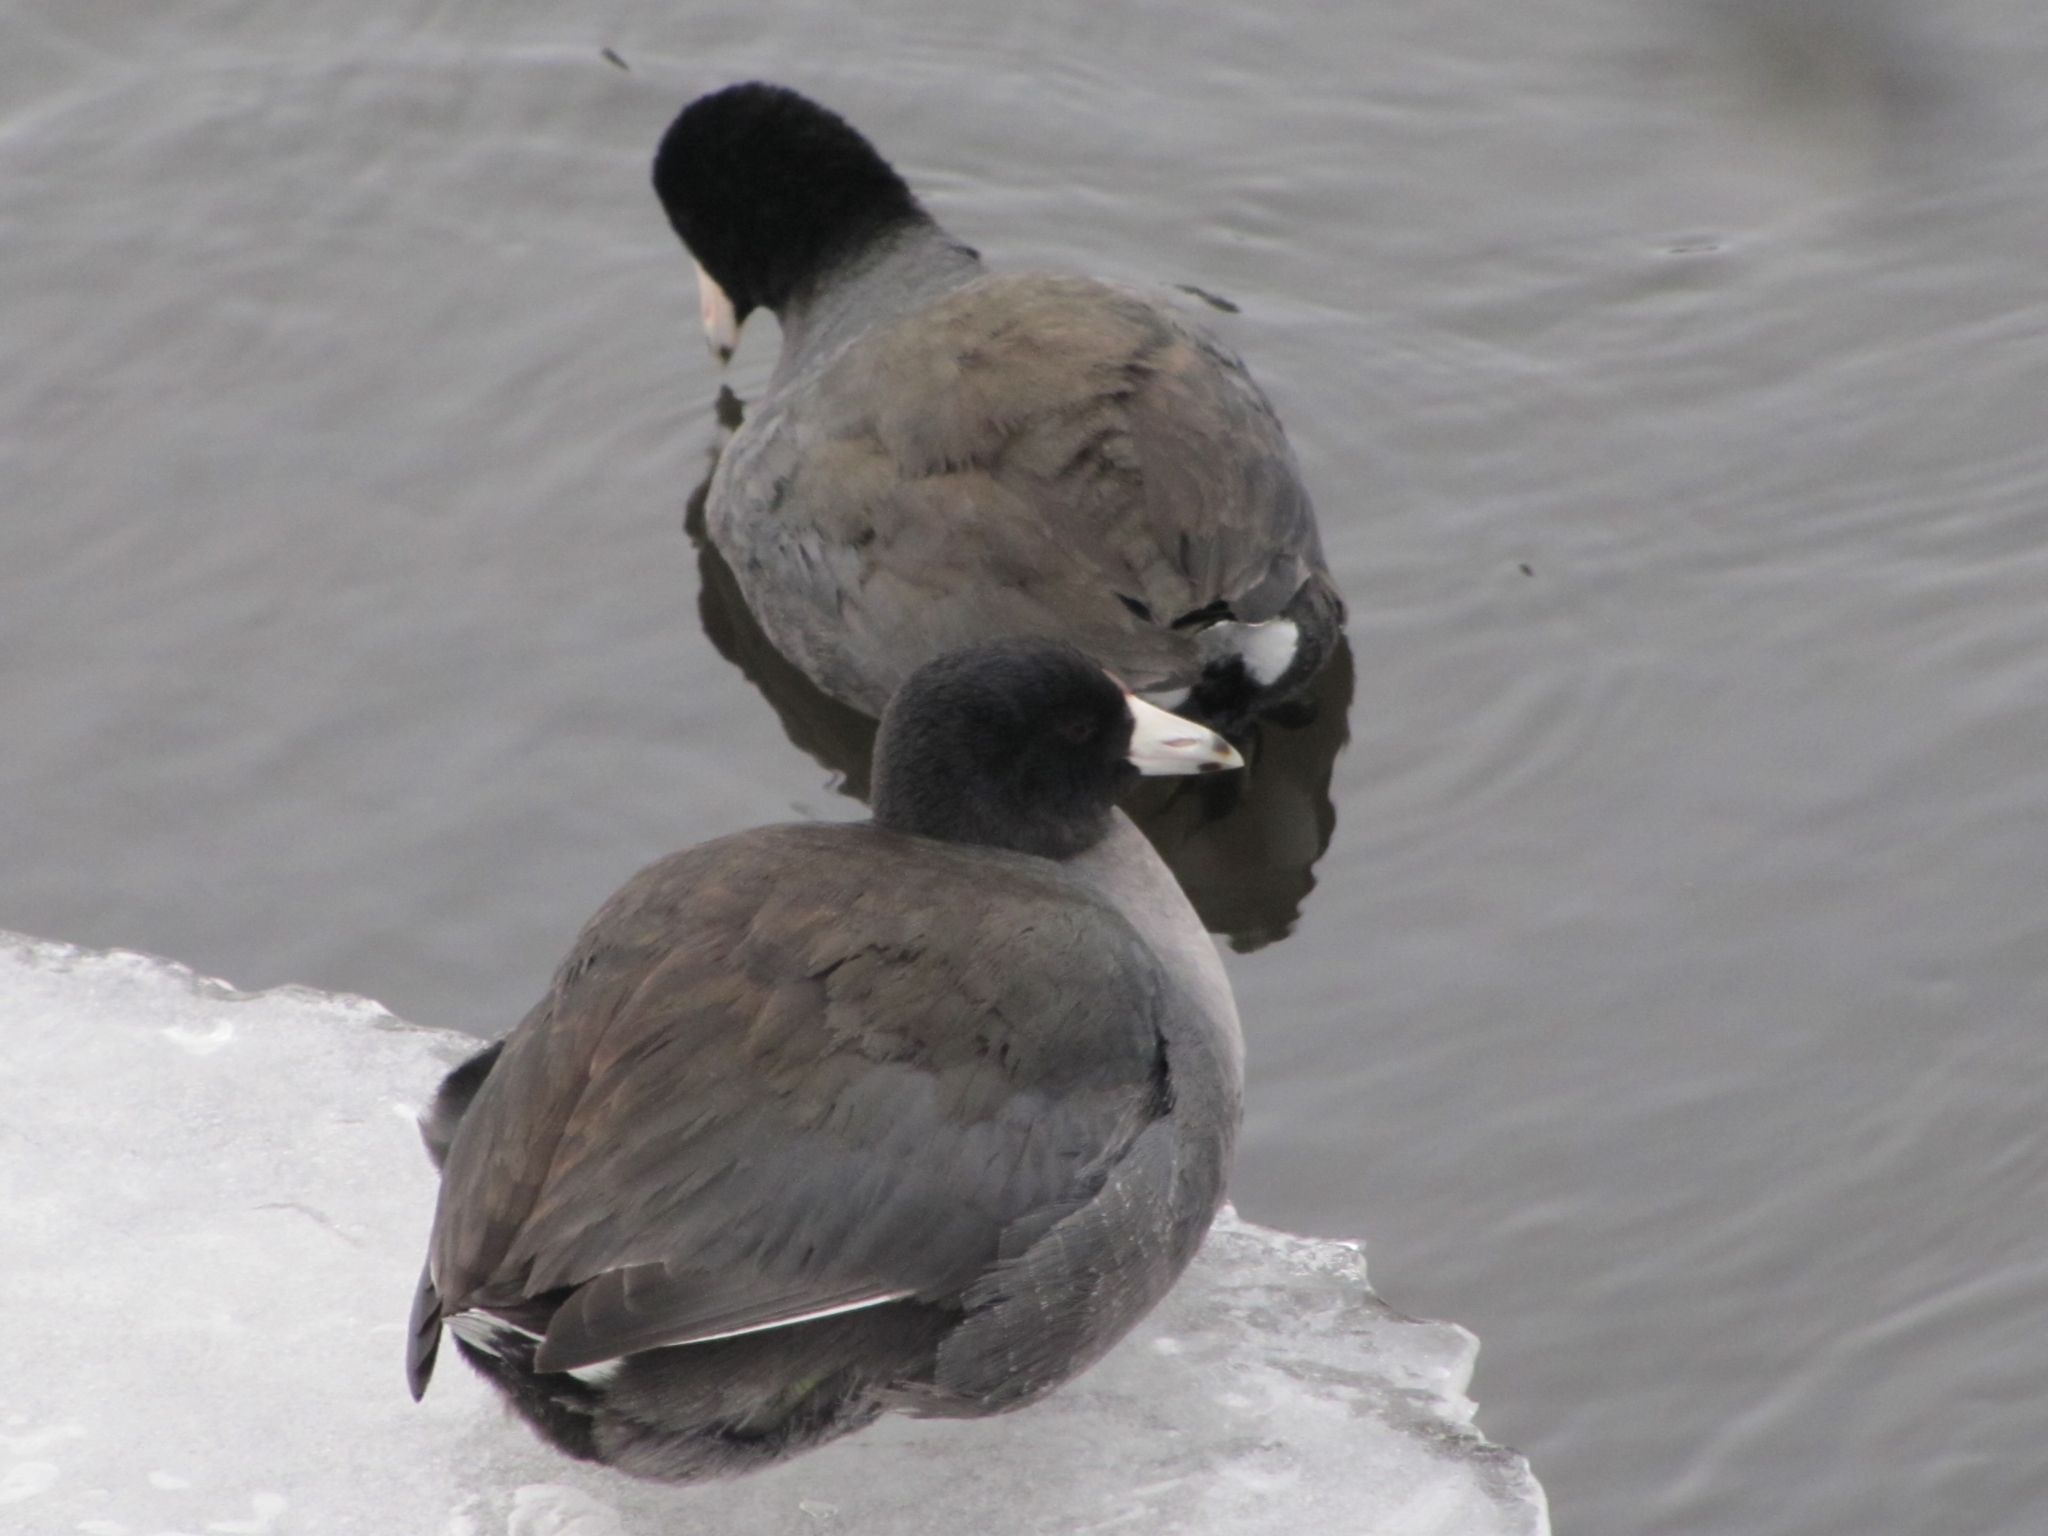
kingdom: Animalia
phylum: Chordata
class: Aves
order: Gruiformes
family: Rallidae
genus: Fulica
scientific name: Fulica americana
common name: American coot
